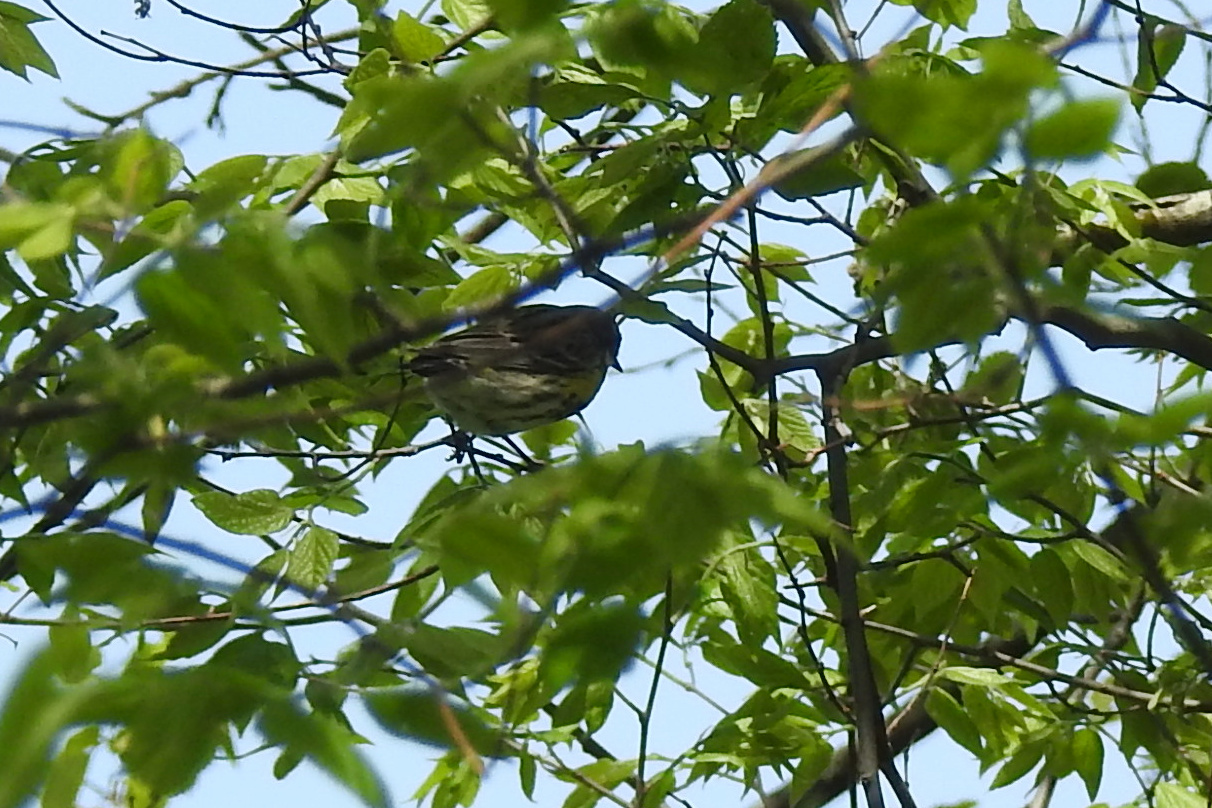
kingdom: Animalia
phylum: Chordata
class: Aves
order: Passeriformes
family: Parulidae
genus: Setophaga
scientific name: Setophaga coronata
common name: Myrtle warbler
